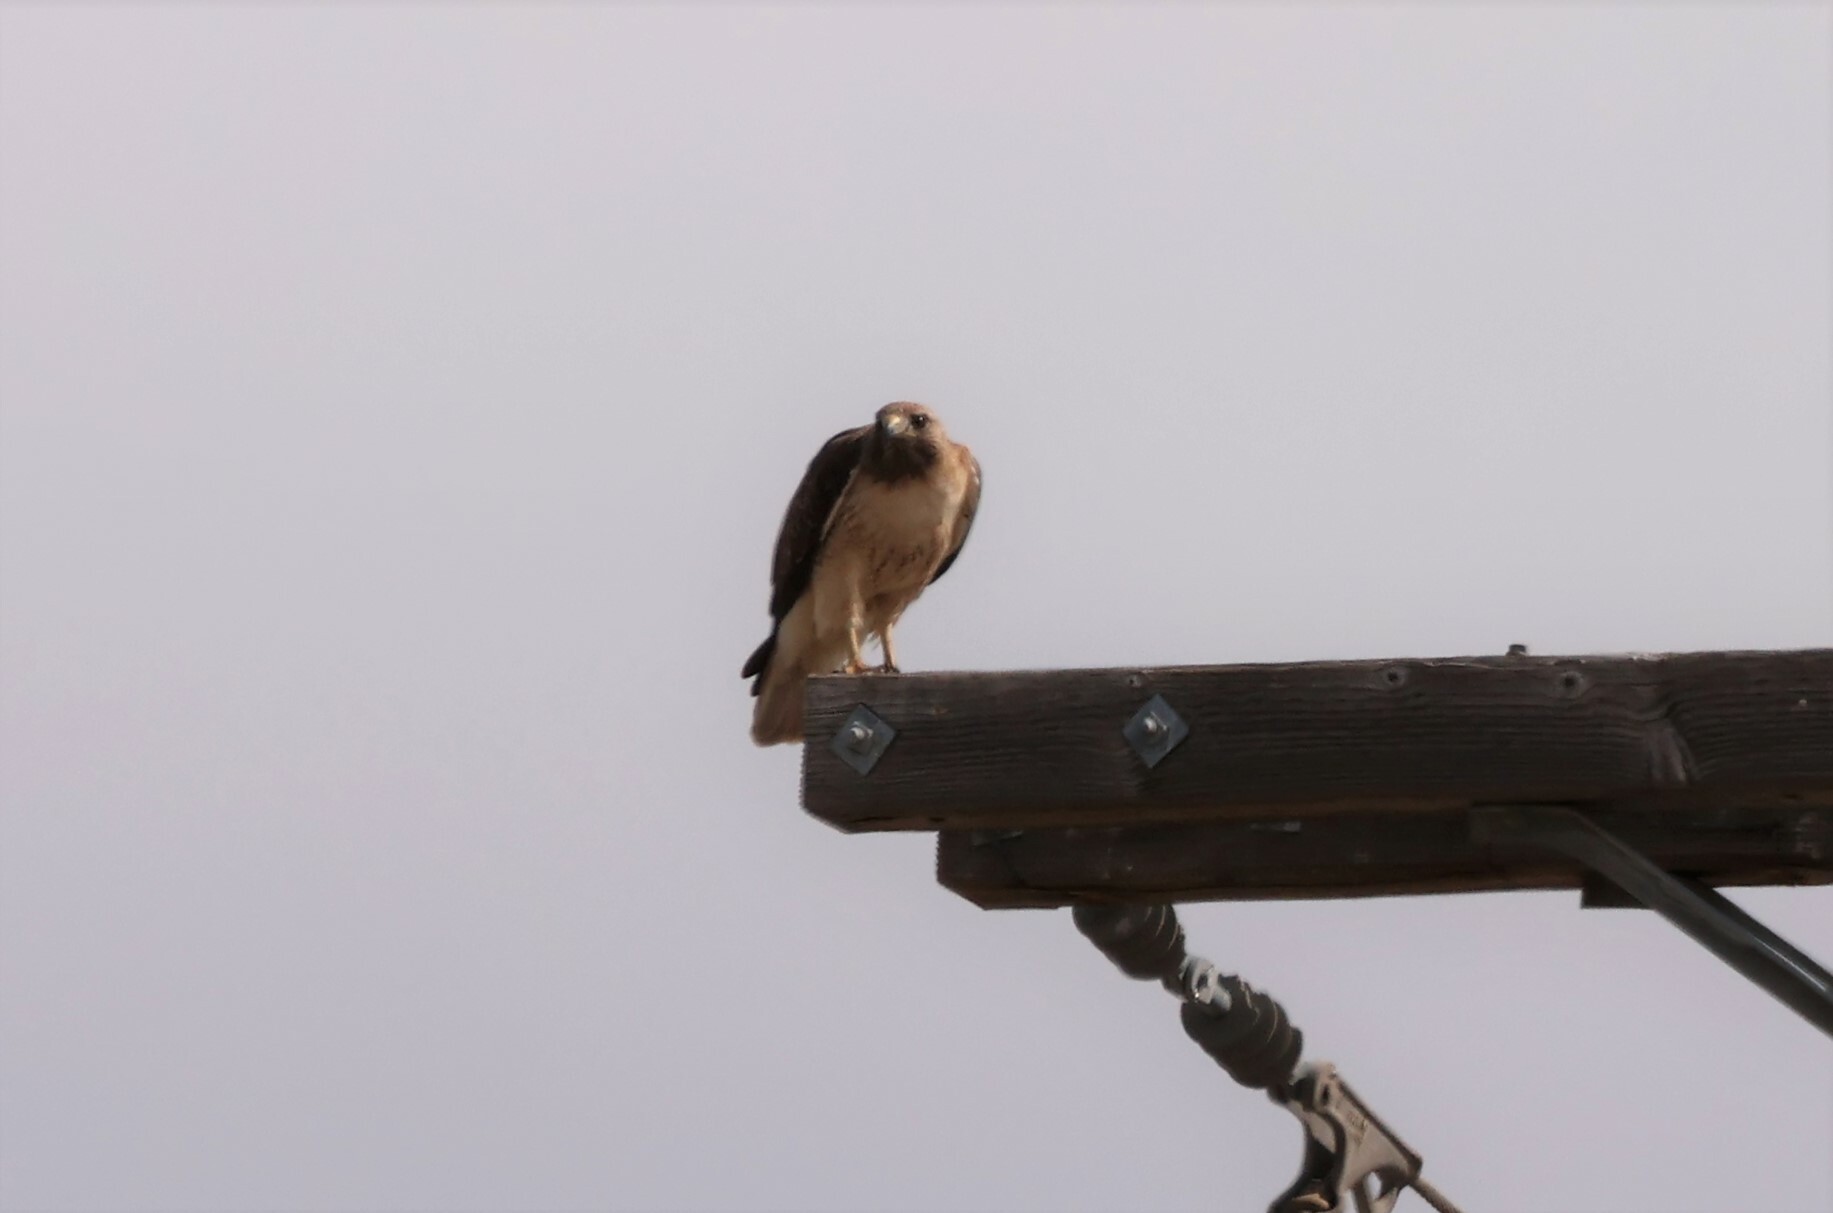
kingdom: Animalia
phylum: Chordata
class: Aves
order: Accipitriformes
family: Accipitridae
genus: Buteo
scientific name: Buteo jamaicensis
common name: Red-tailed hawk
